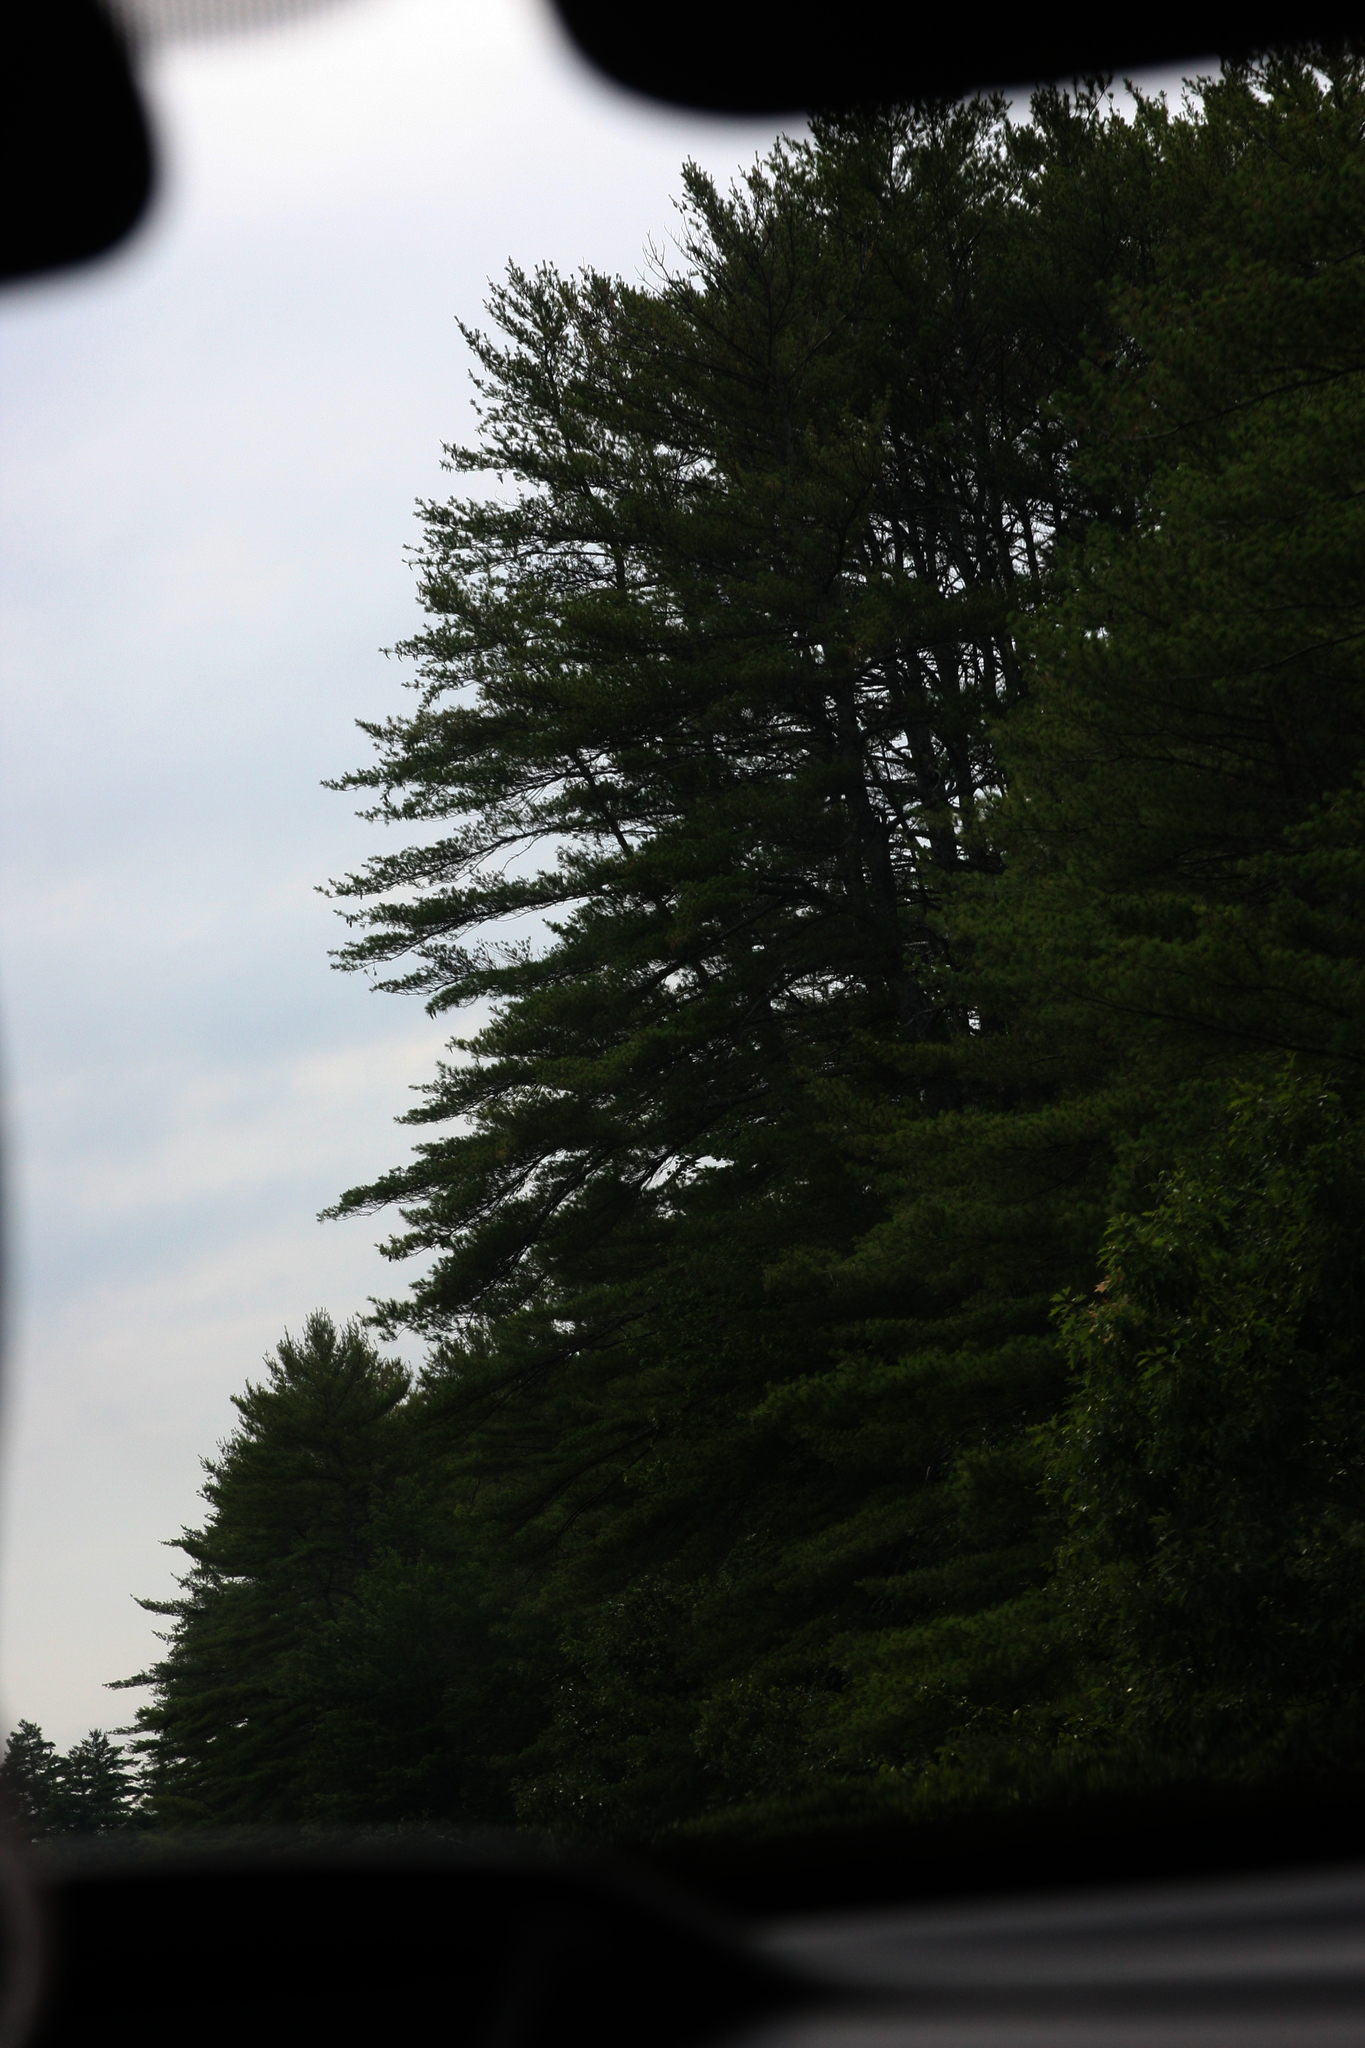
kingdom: Plantae
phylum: Tracheophyta
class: Pinopsida
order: Pinales
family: Pinaceae
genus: Pinus
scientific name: Pinus strobus
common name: Weymouth pine
